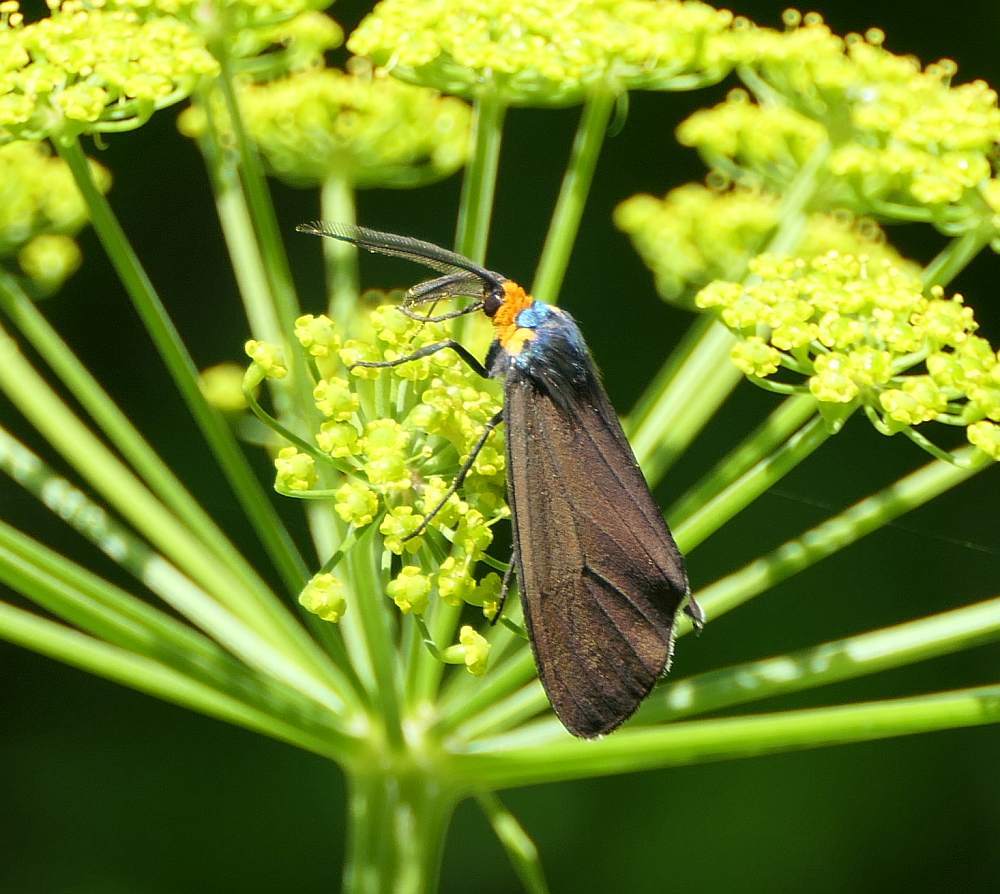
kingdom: Animalia
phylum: Arthropoda
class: Insecta
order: Lepidoptera
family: Erebidae
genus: Ctenucha
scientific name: Ctenucha virginica
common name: Virginia ctenucha moth
